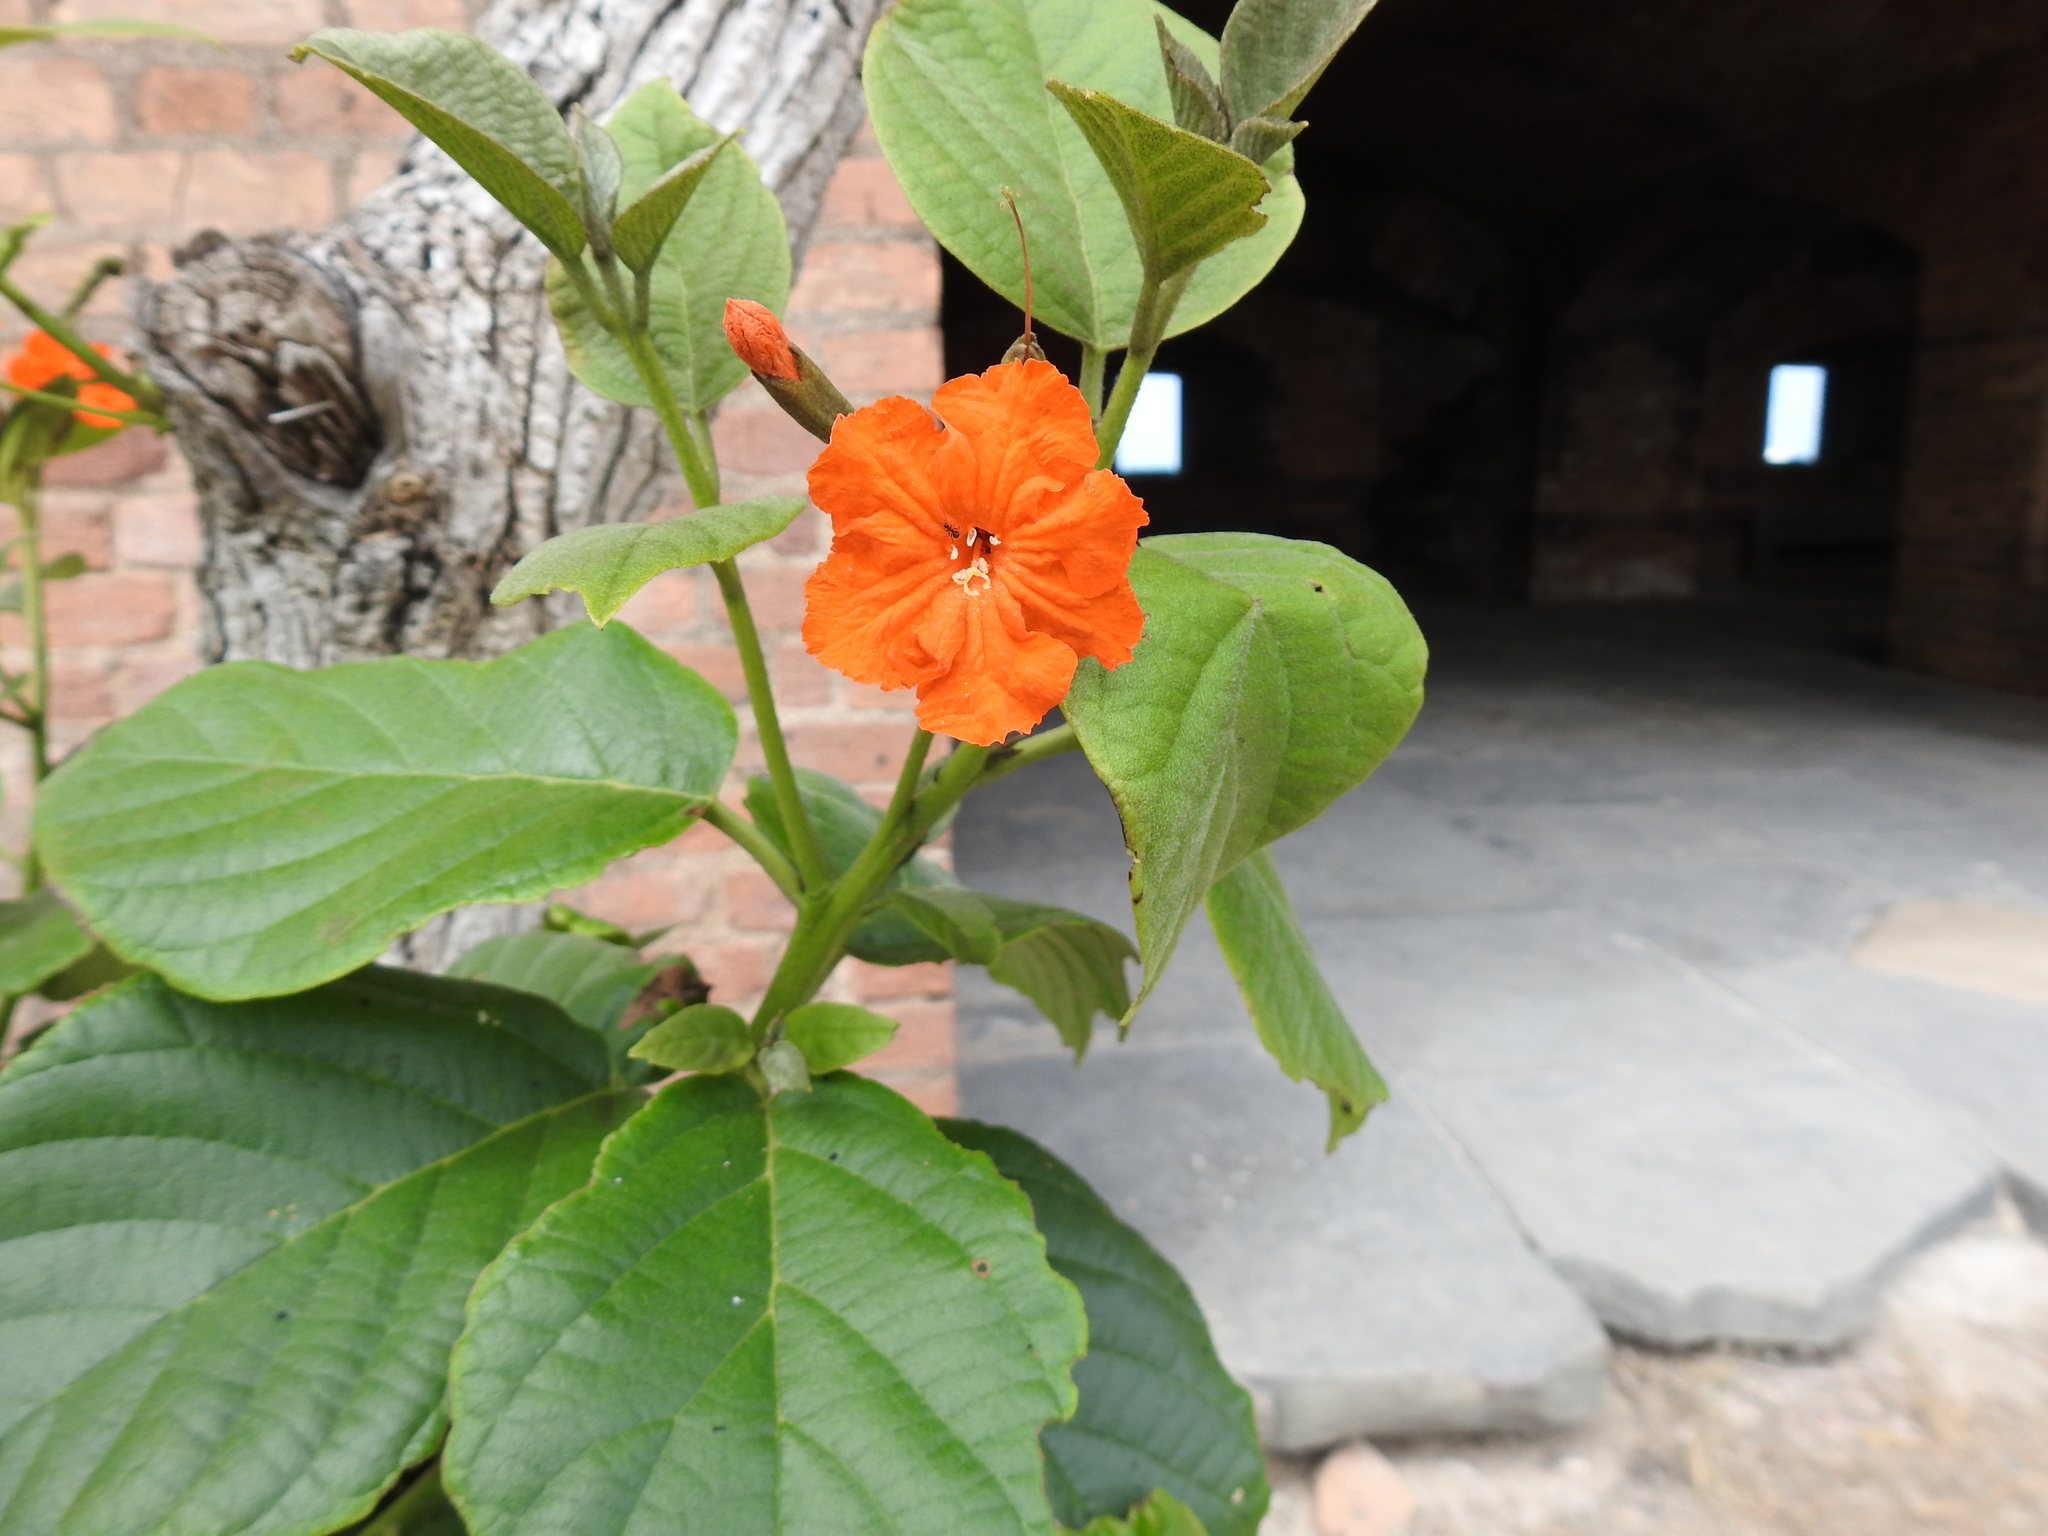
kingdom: Plantae
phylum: Tracheophyta
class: Magnoliopsida
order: Boraginales
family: Cordiaceae
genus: Cordia
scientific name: Cordia sebestena
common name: Largeleaf geigertree
